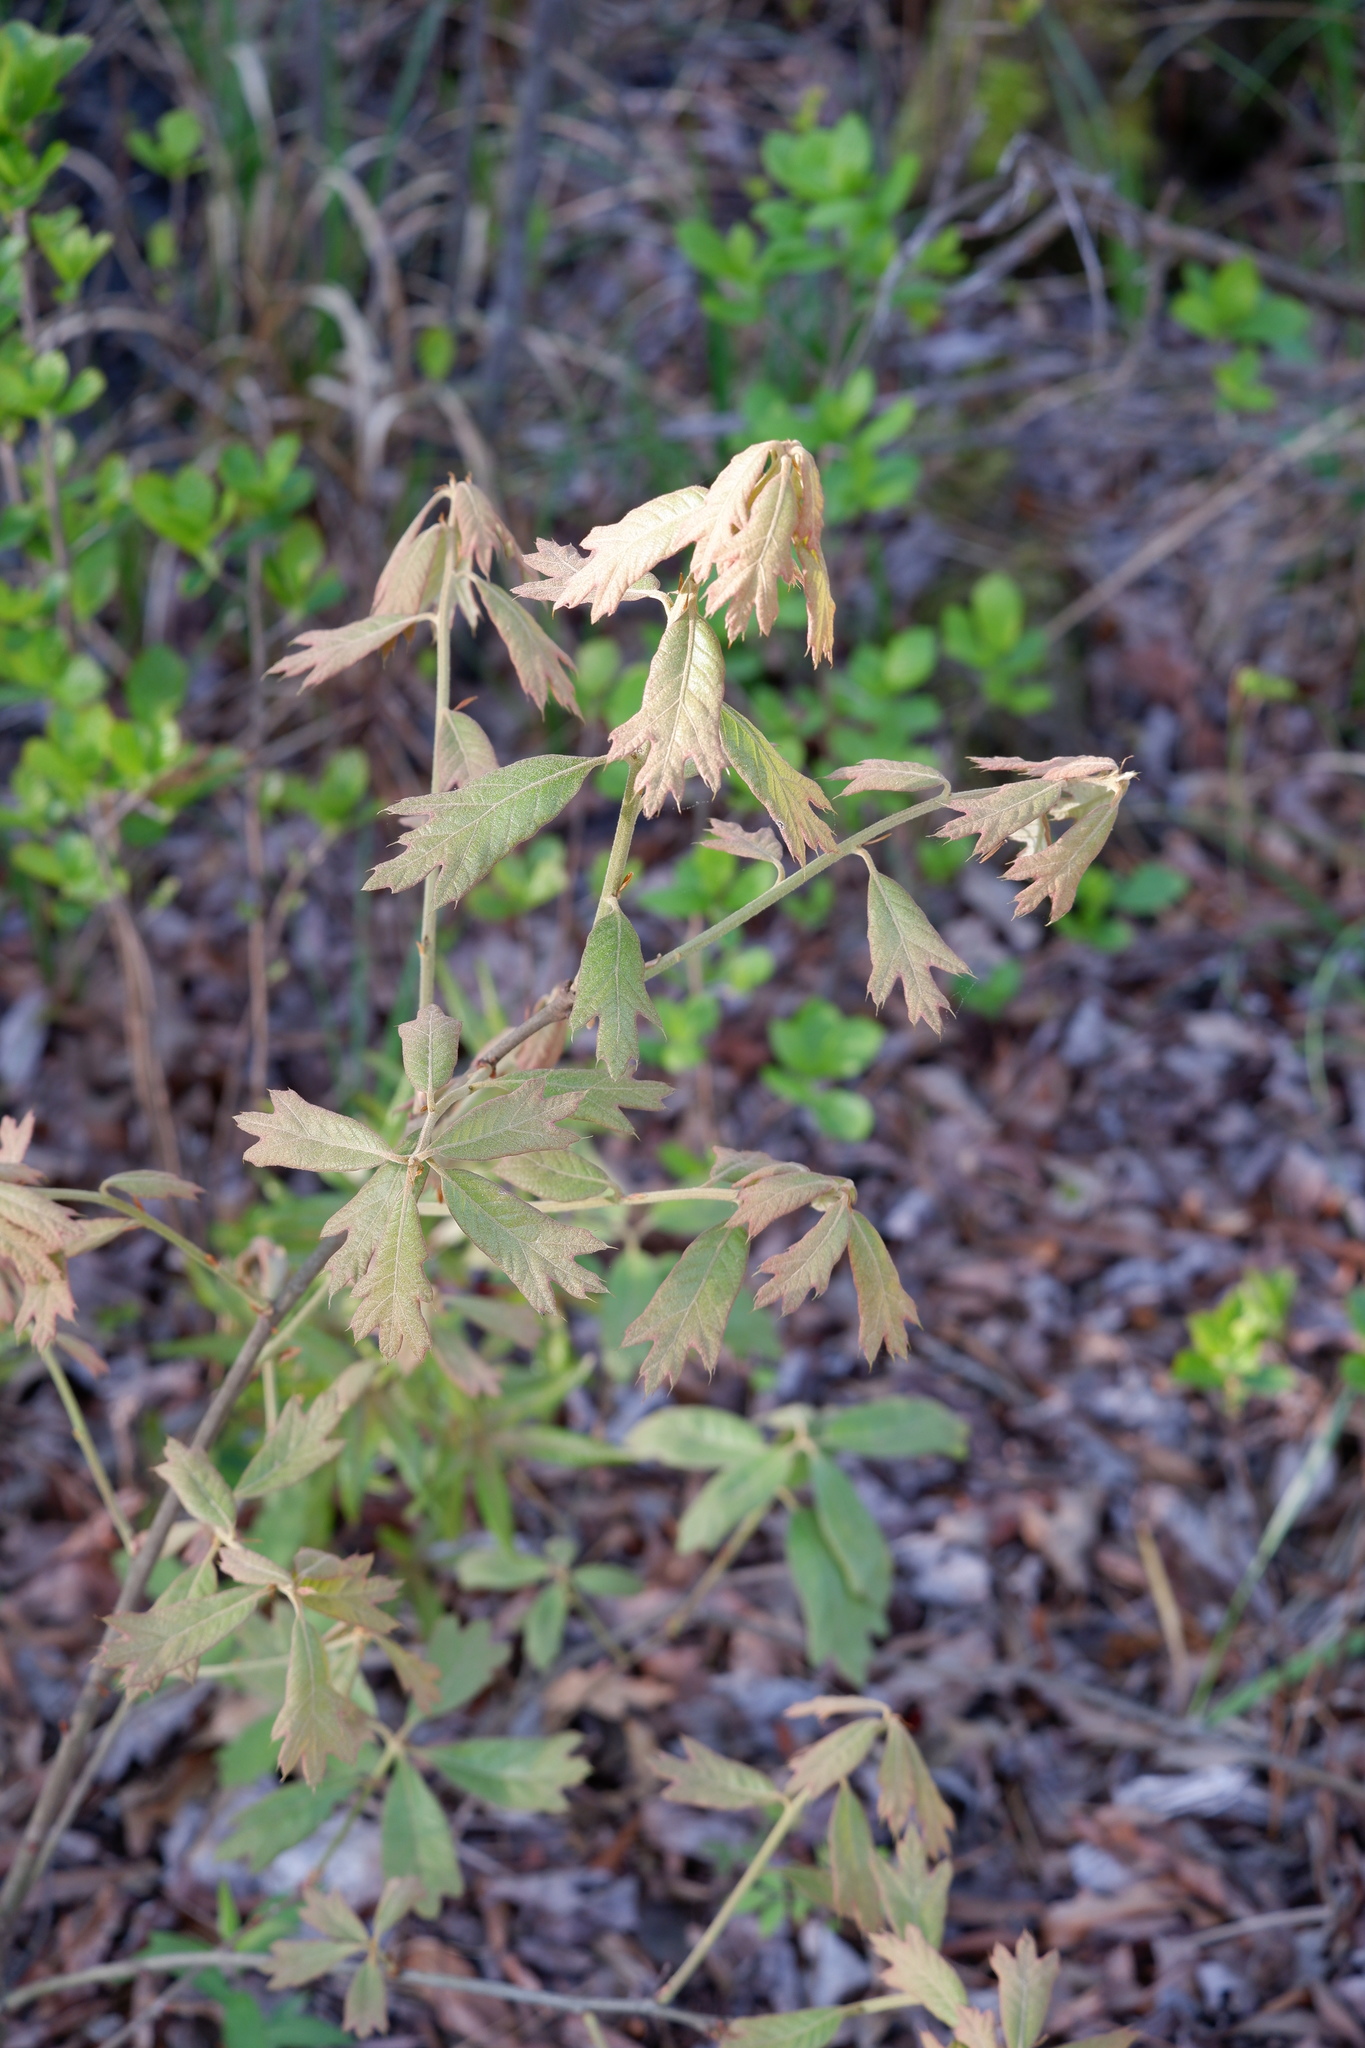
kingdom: Plantae
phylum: Tracheophyta
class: Magnoliopsida
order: Fagales
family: Fagaceae
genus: Quercus
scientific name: Quercus falcata
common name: Southern red oak
